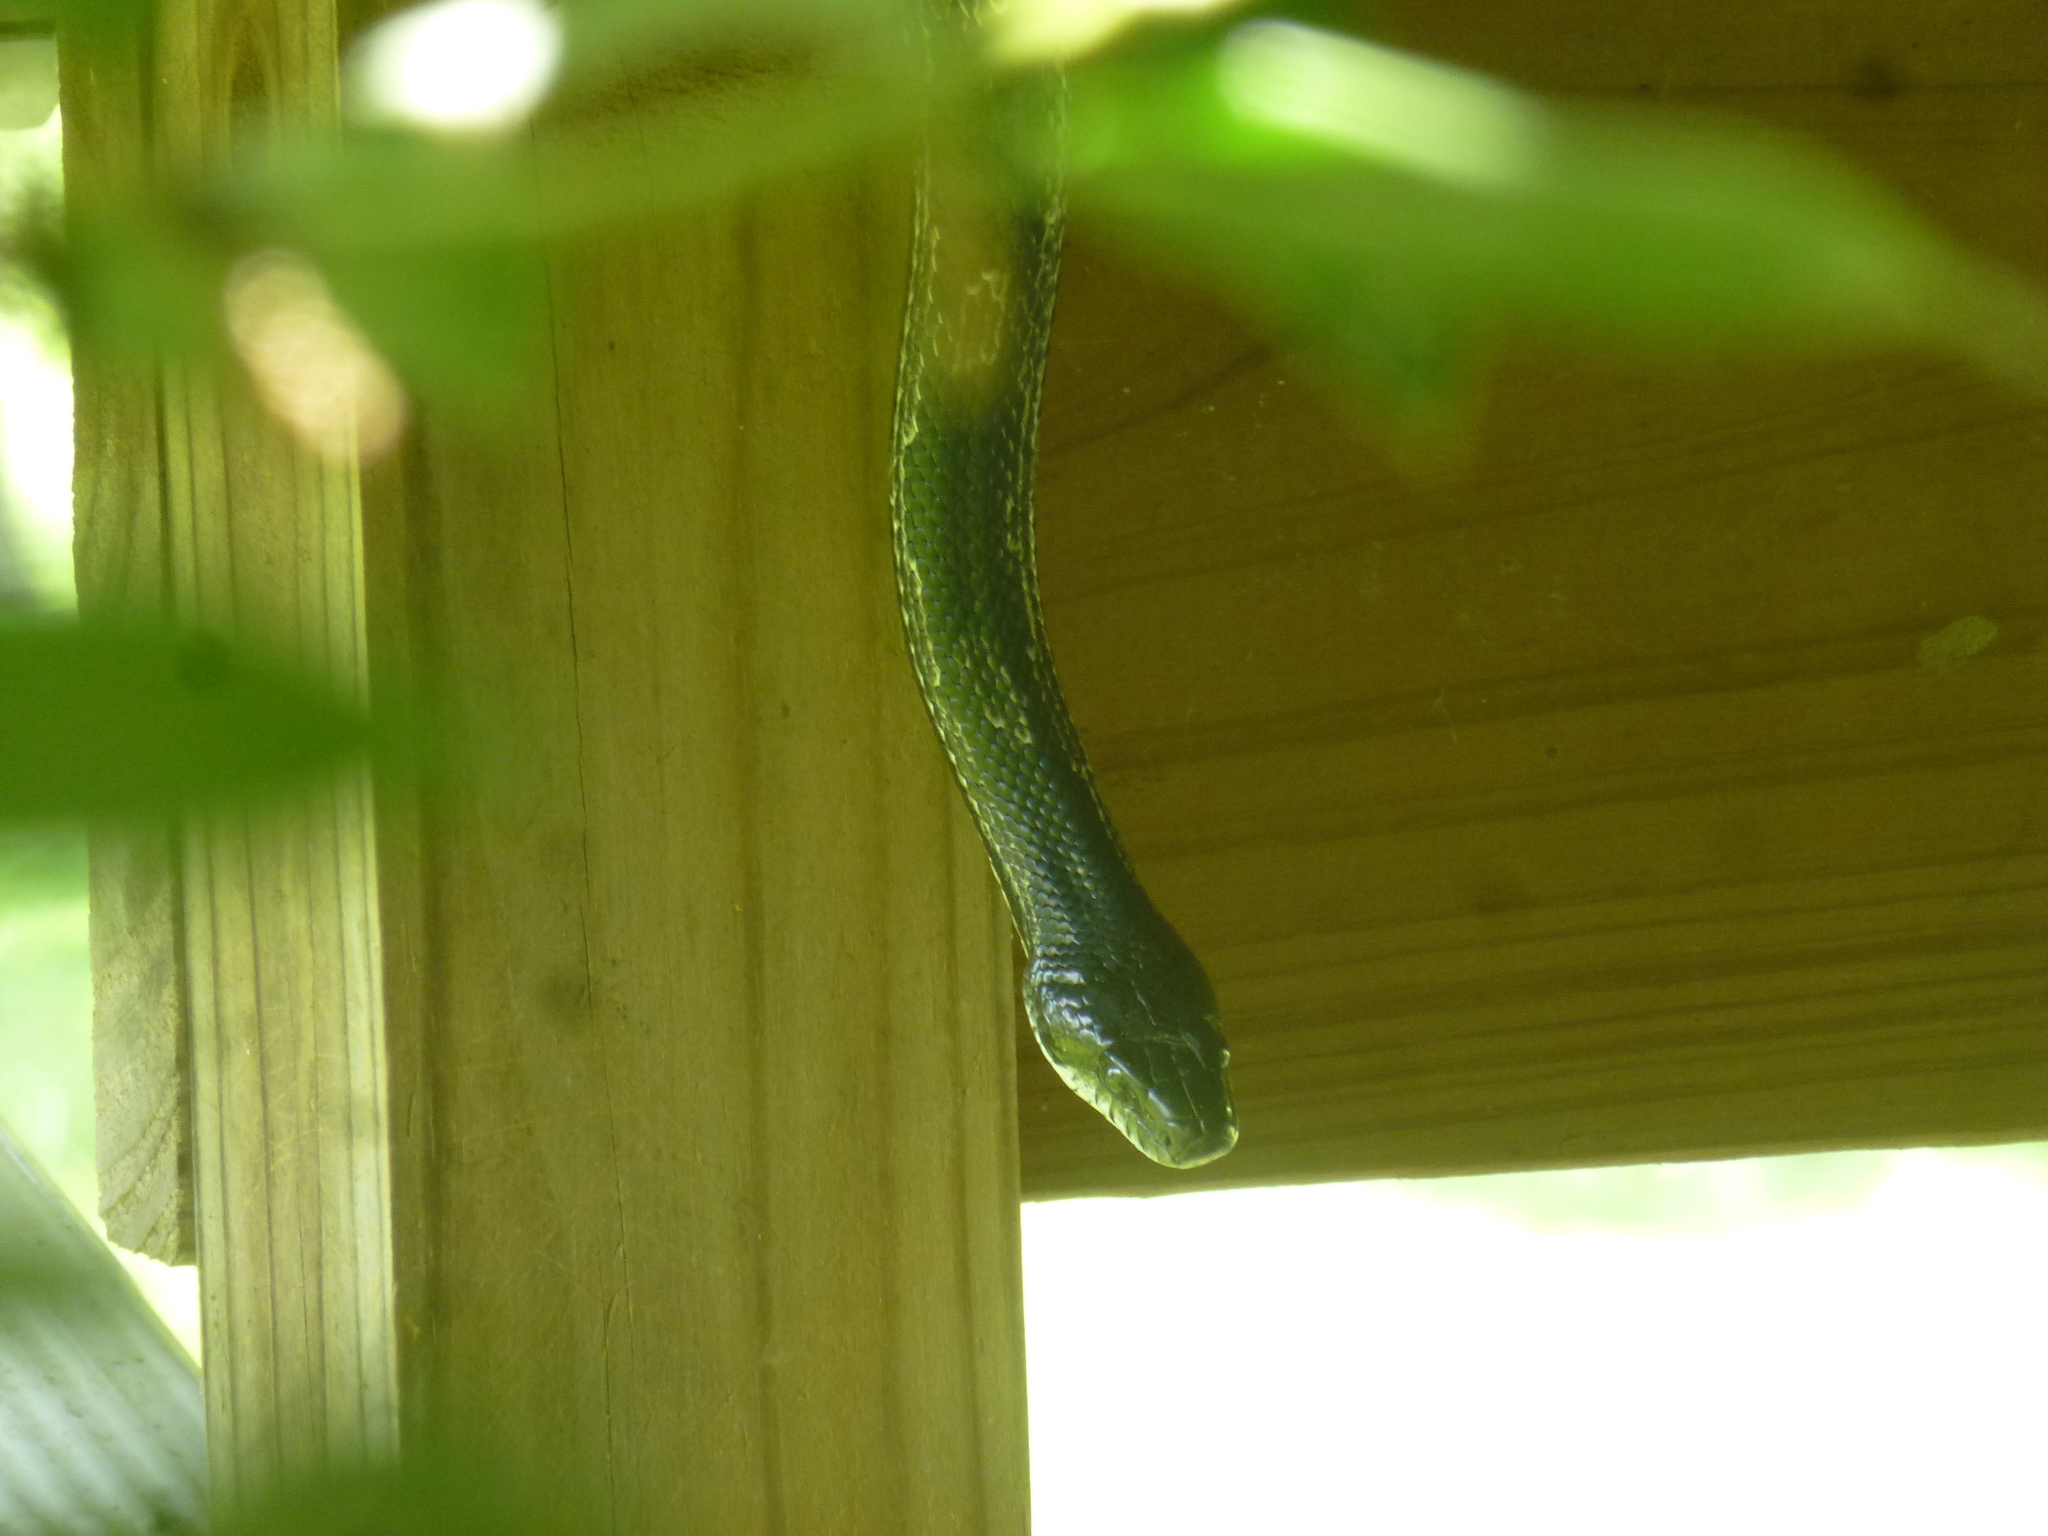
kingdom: Animalia
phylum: Chordata
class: Squamata
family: Colubridae
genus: Pantherophis
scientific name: Pantherophis spiloides
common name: Gray rat snake
